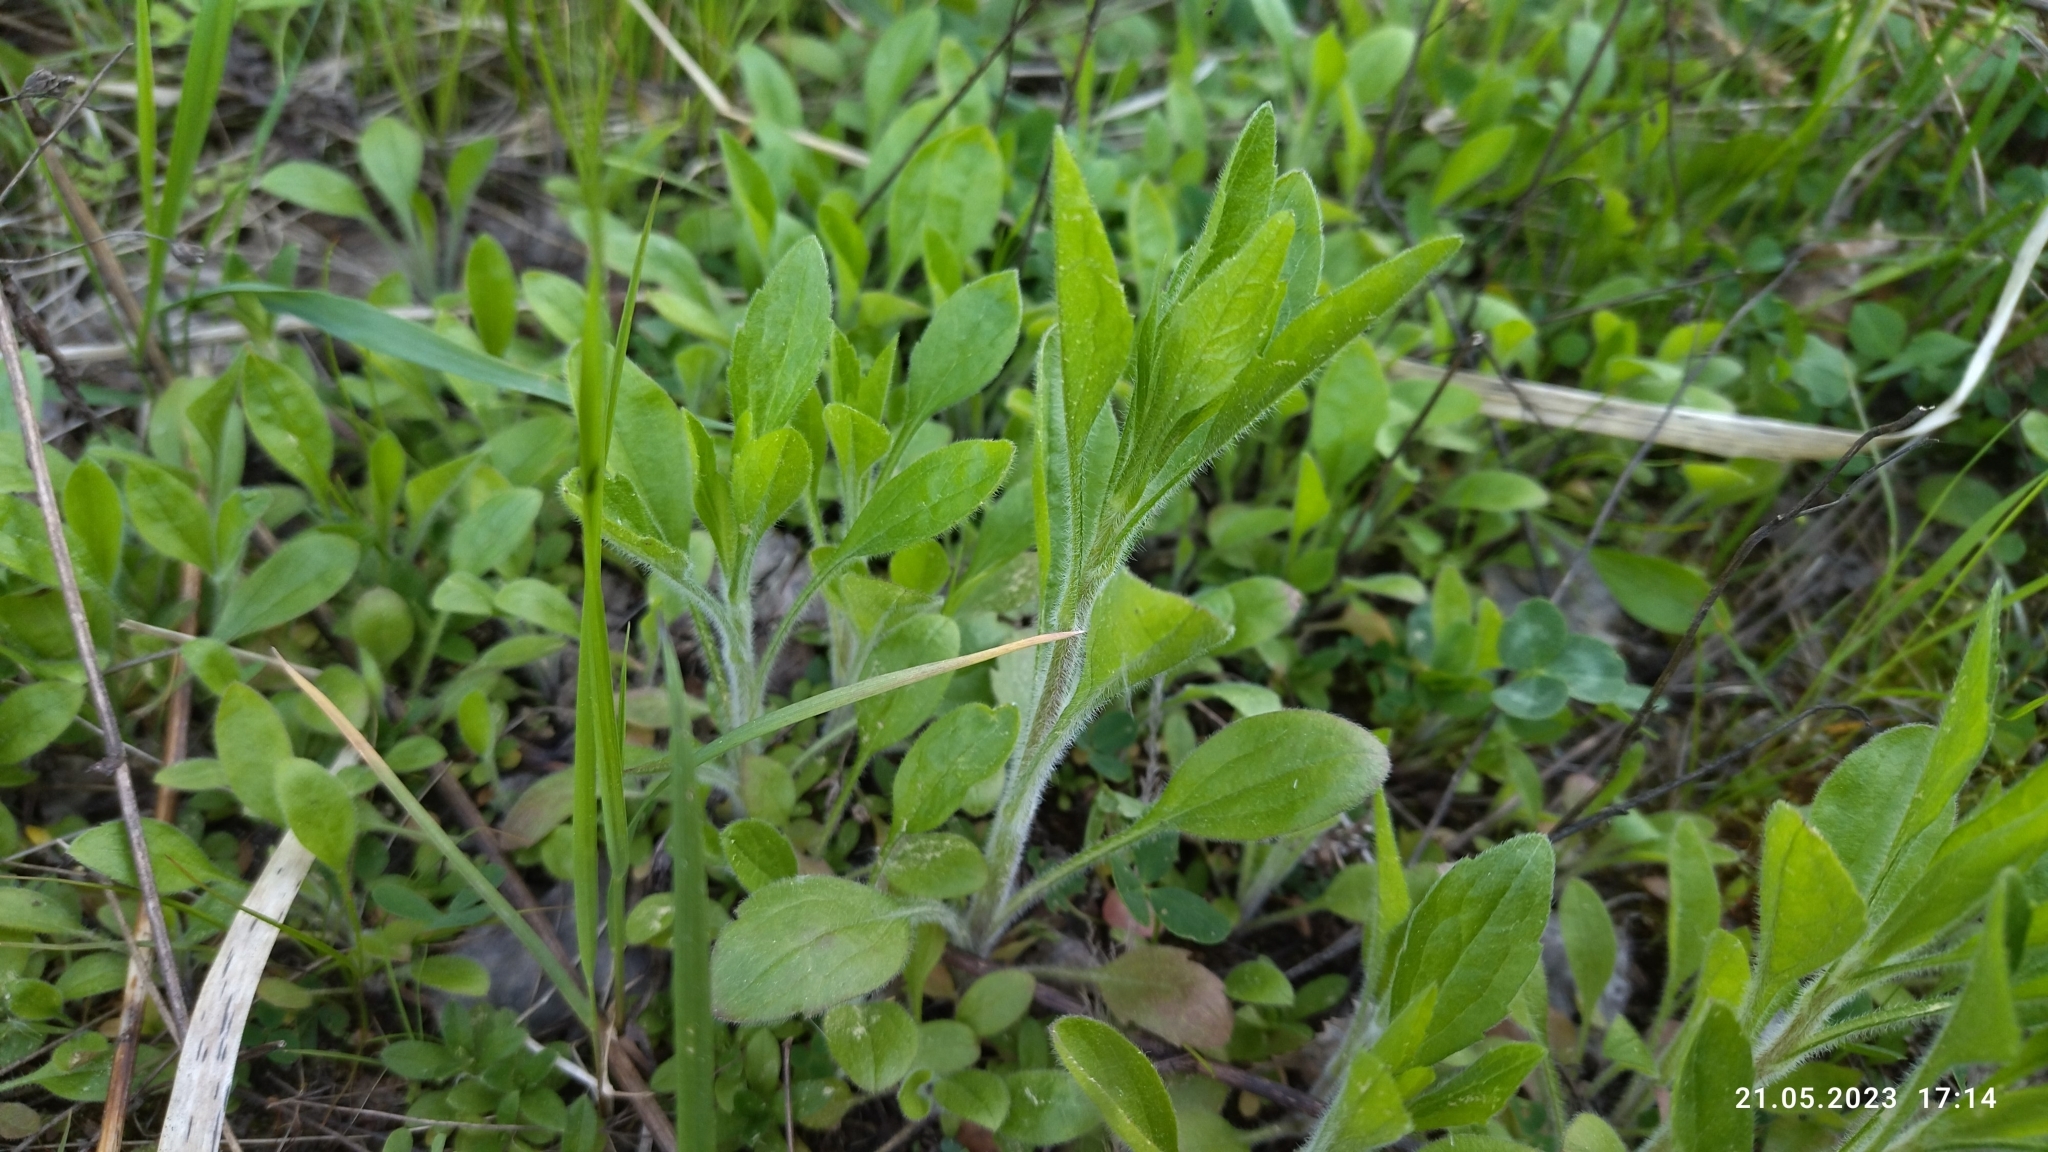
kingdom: Plantae
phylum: Tracheophyta
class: Magnoliopsida
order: Asterales
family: Asteraceae
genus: Erigeron
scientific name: Erigeron annuus
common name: Tall fleabane
